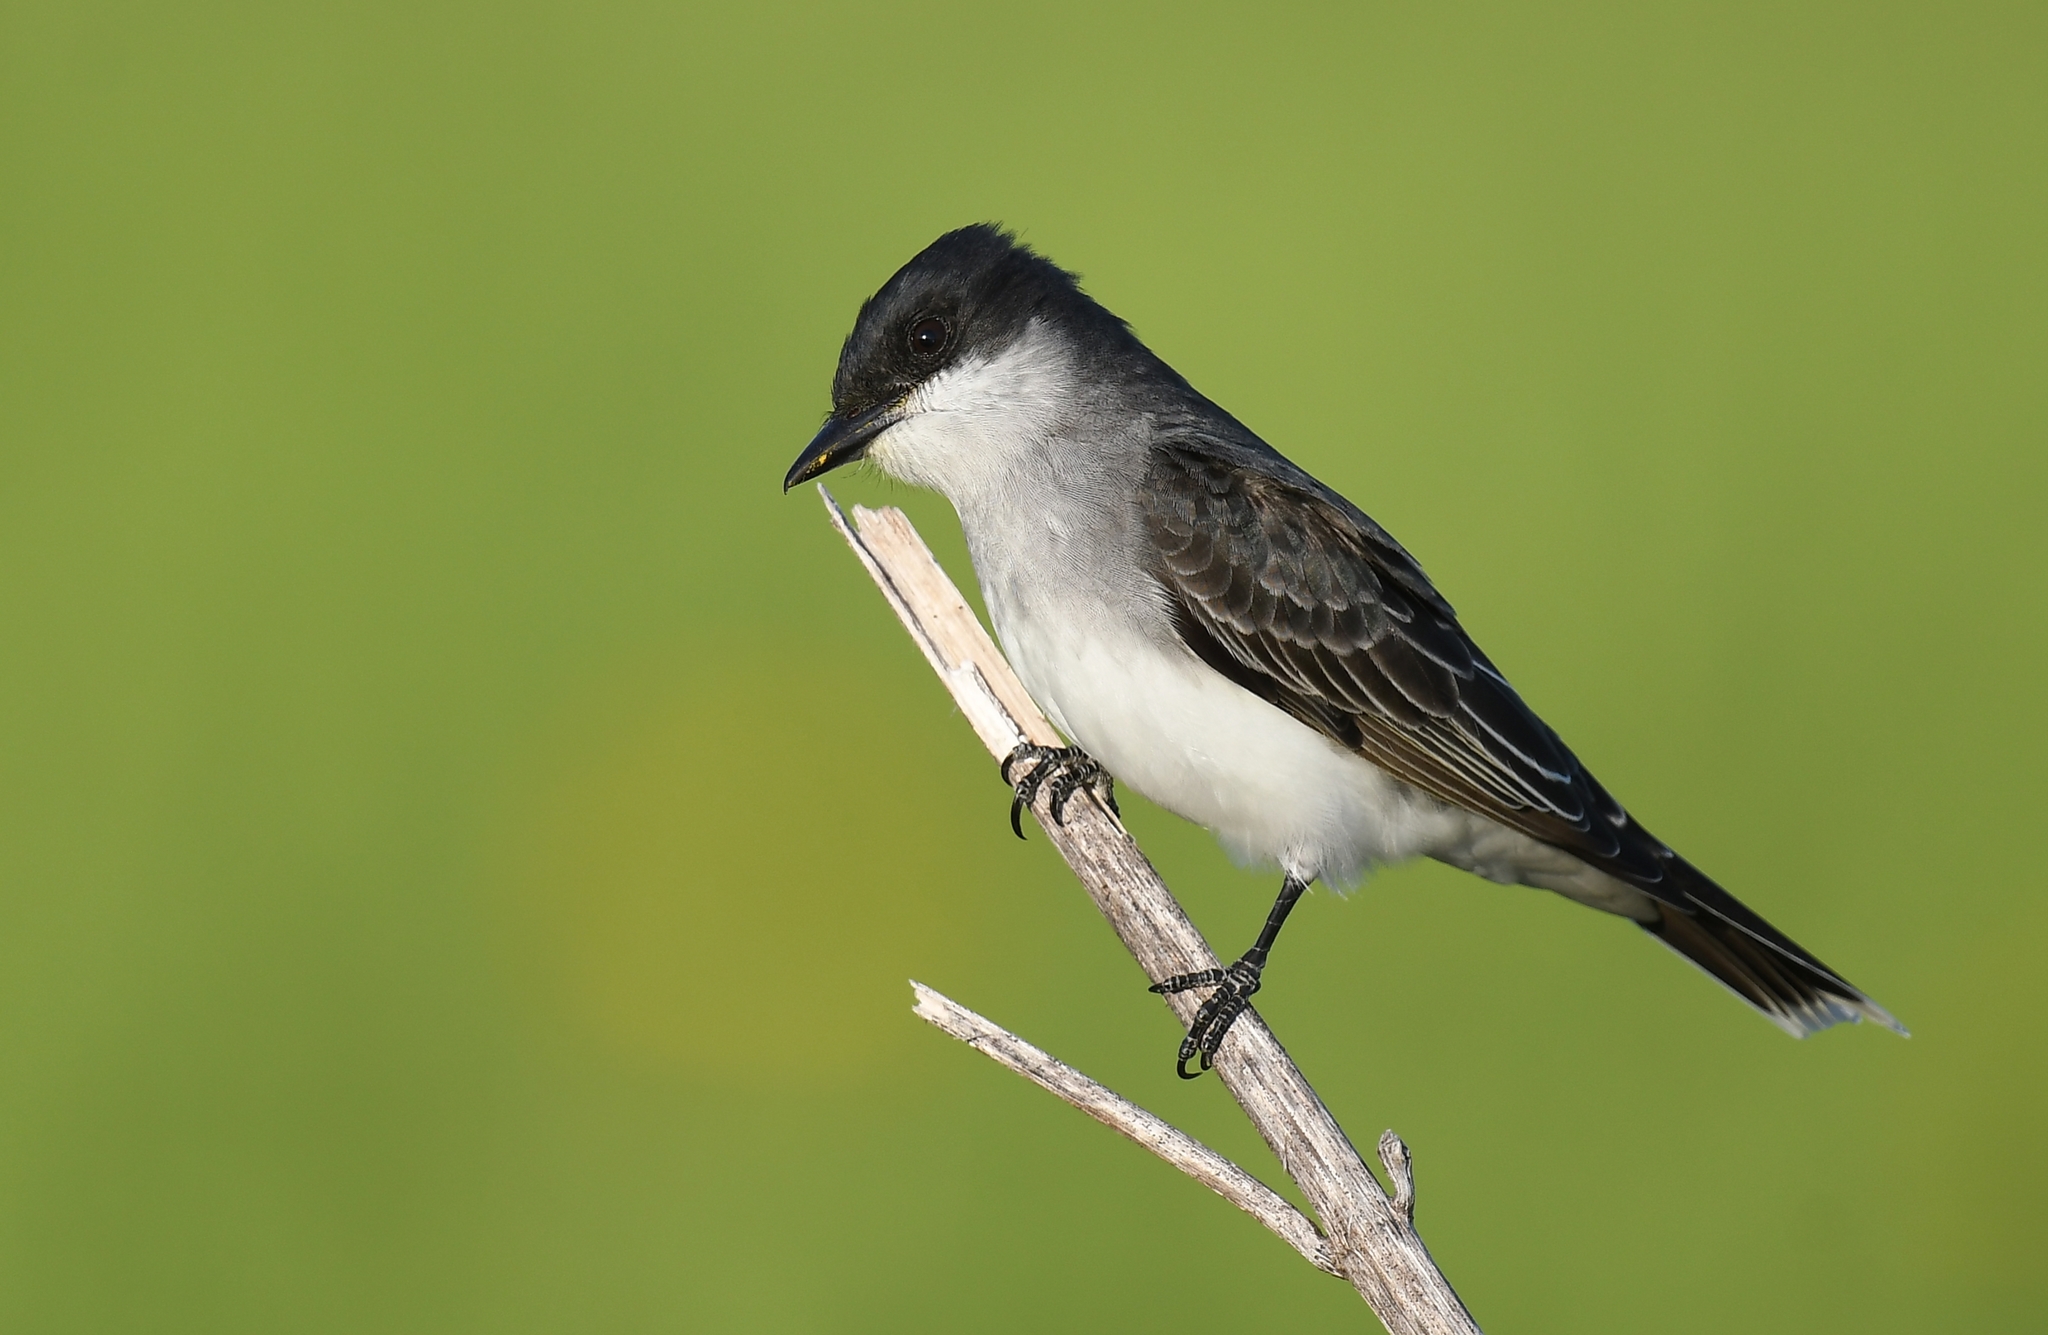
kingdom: Animalia
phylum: Chordata
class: Aves
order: Passeriformes
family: Tyrannidae
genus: Tyrannus
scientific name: Tyrannus tyrannus
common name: Eastern kingbird
